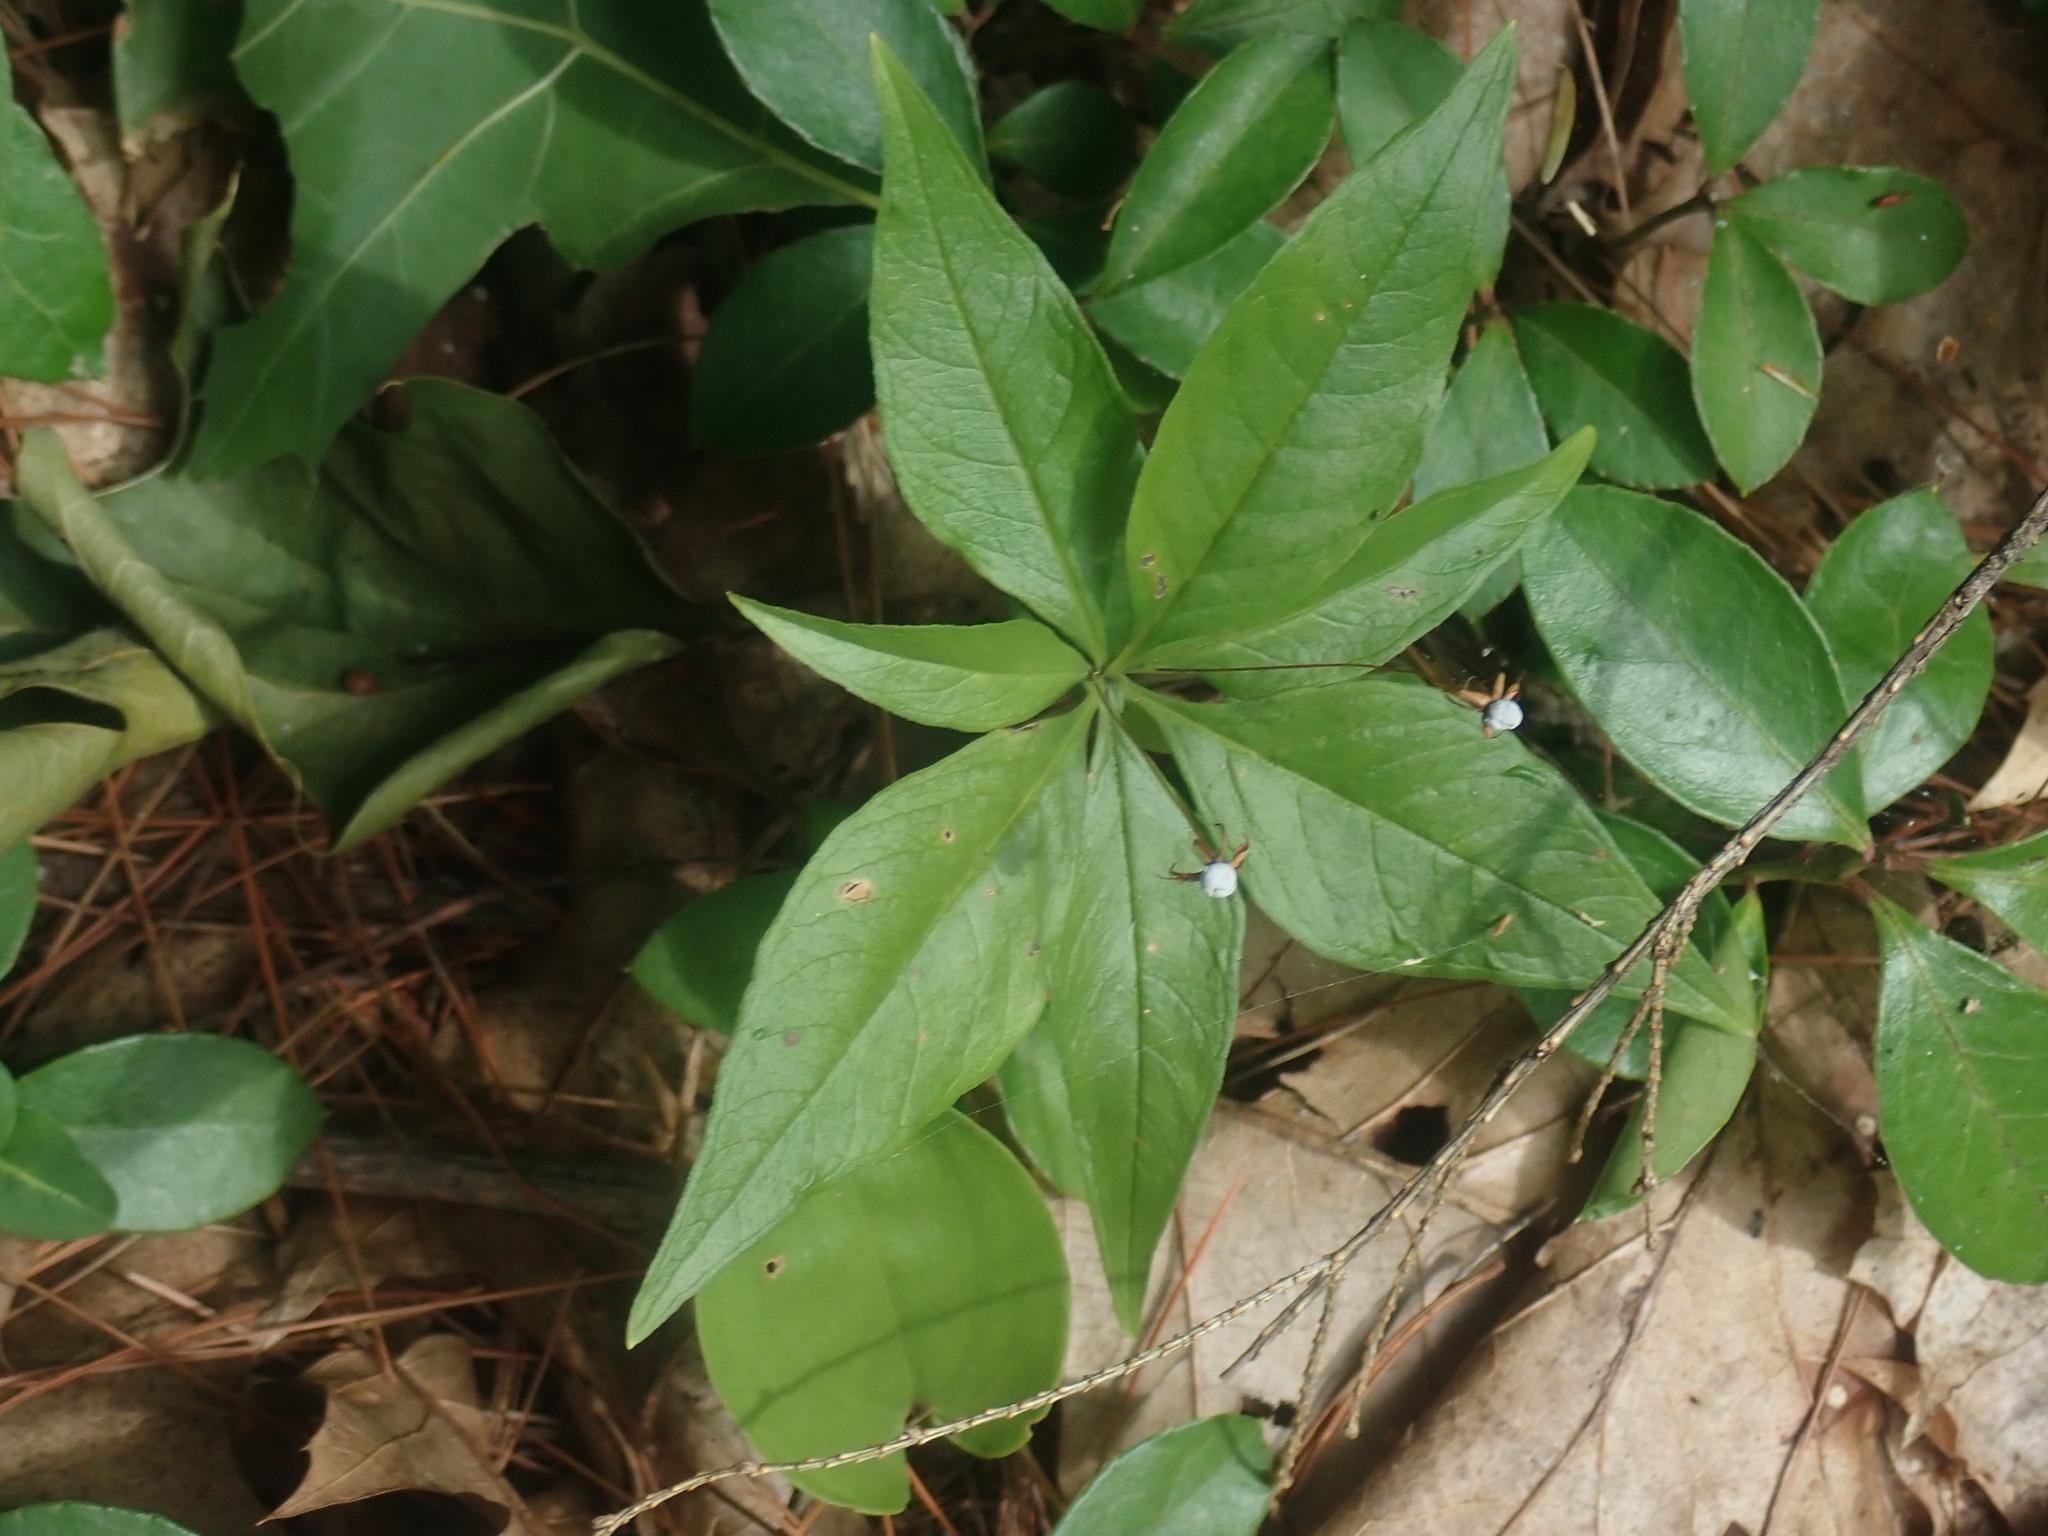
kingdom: Plantae
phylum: Tracheophyta
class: Magnoliopsida
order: Ericales
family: Primulaceae
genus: Lysimachia
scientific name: Lysimachia borealis
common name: American starflower
